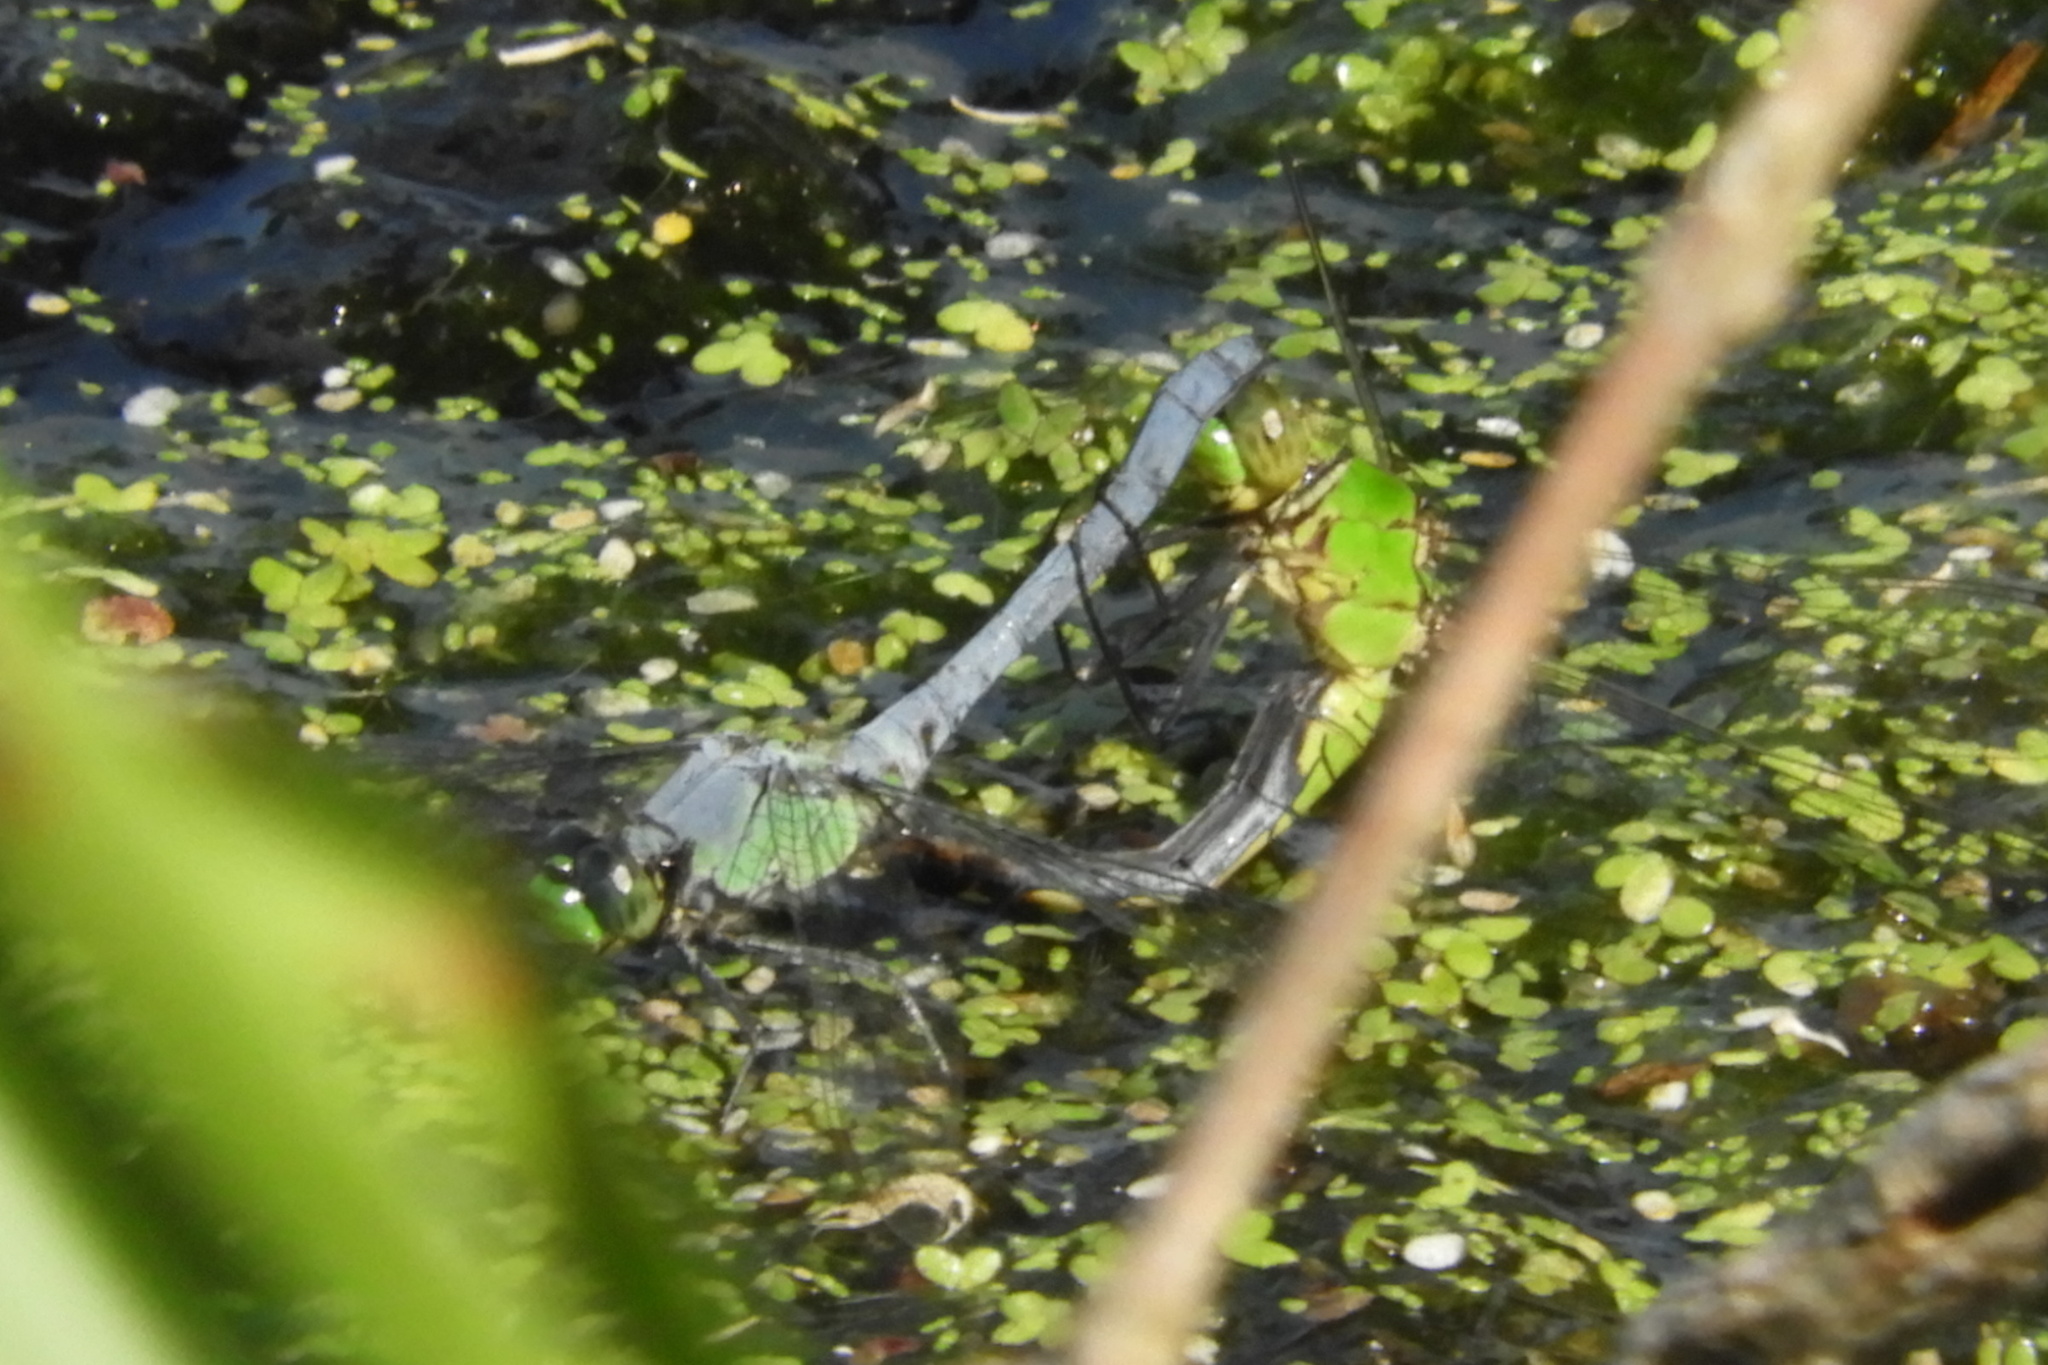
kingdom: Animalia
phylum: Arthropoda
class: Insecta
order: Odonata
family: Libellulidae
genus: Erythemis
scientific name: Erythemis simplicicollis
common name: Eastern pondhawk
